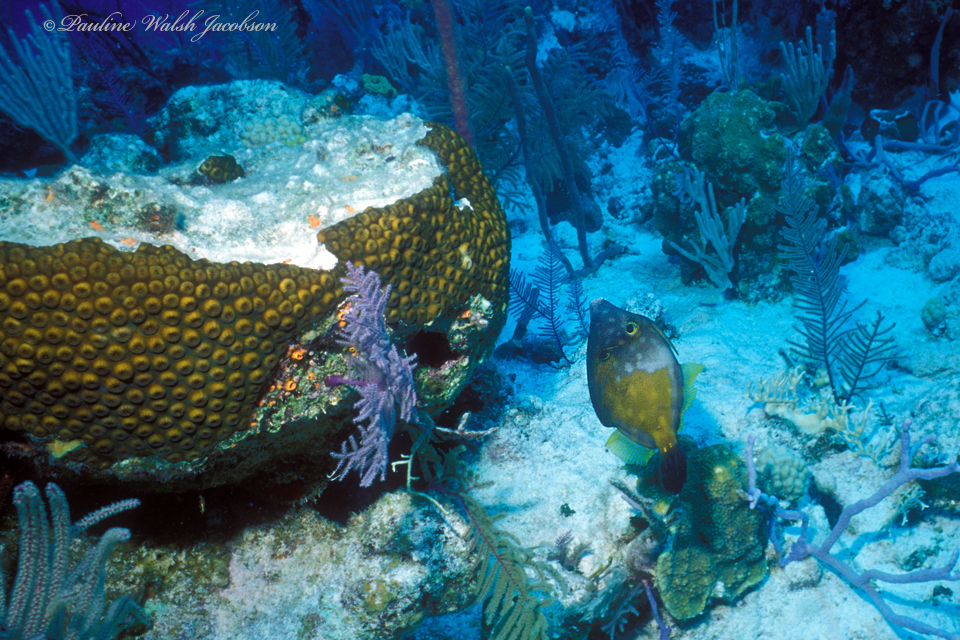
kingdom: Animalia
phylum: Chordata
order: Tetraodontiformes
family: Monacanthidae
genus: Cantherhines
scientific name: Cantherhines macrocerus
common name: Whitespotted filefish
